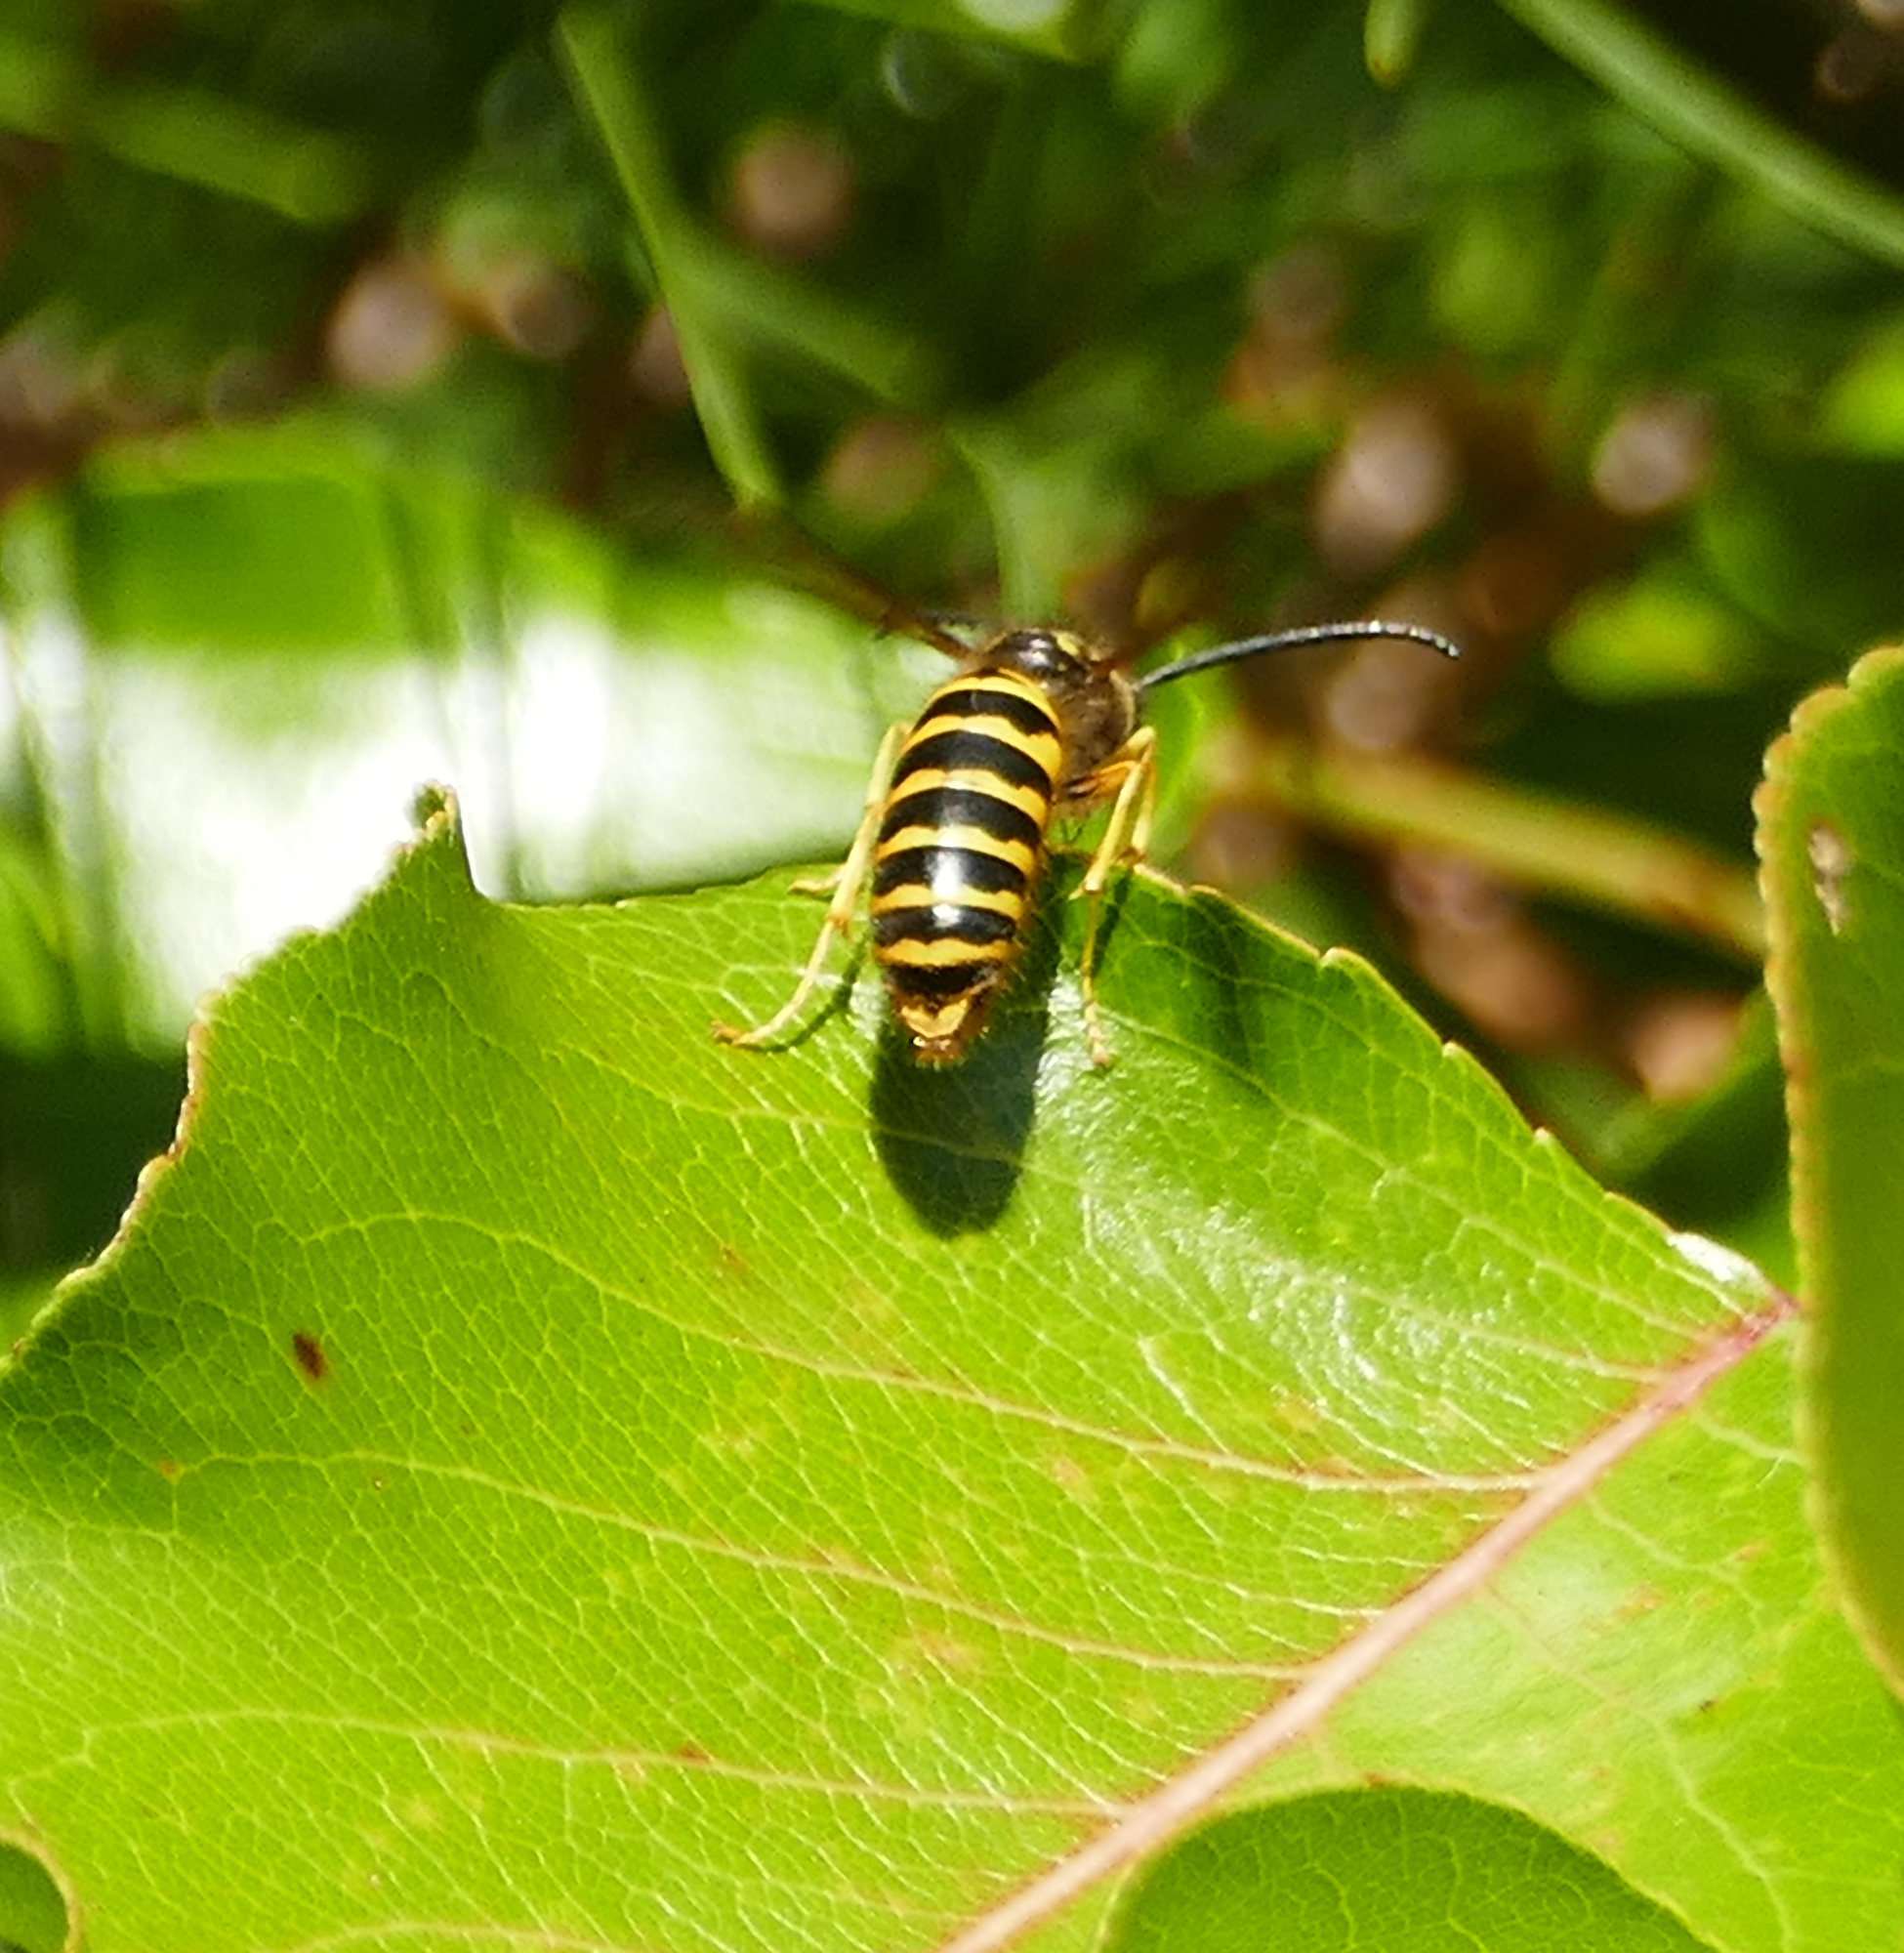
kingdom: Animalia
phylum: Arthropoda
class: Insecta
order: Hymenoptera
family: Vespidae
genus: Vespula
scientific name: Vespula maculifrons
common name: Eastern yellowjacket
